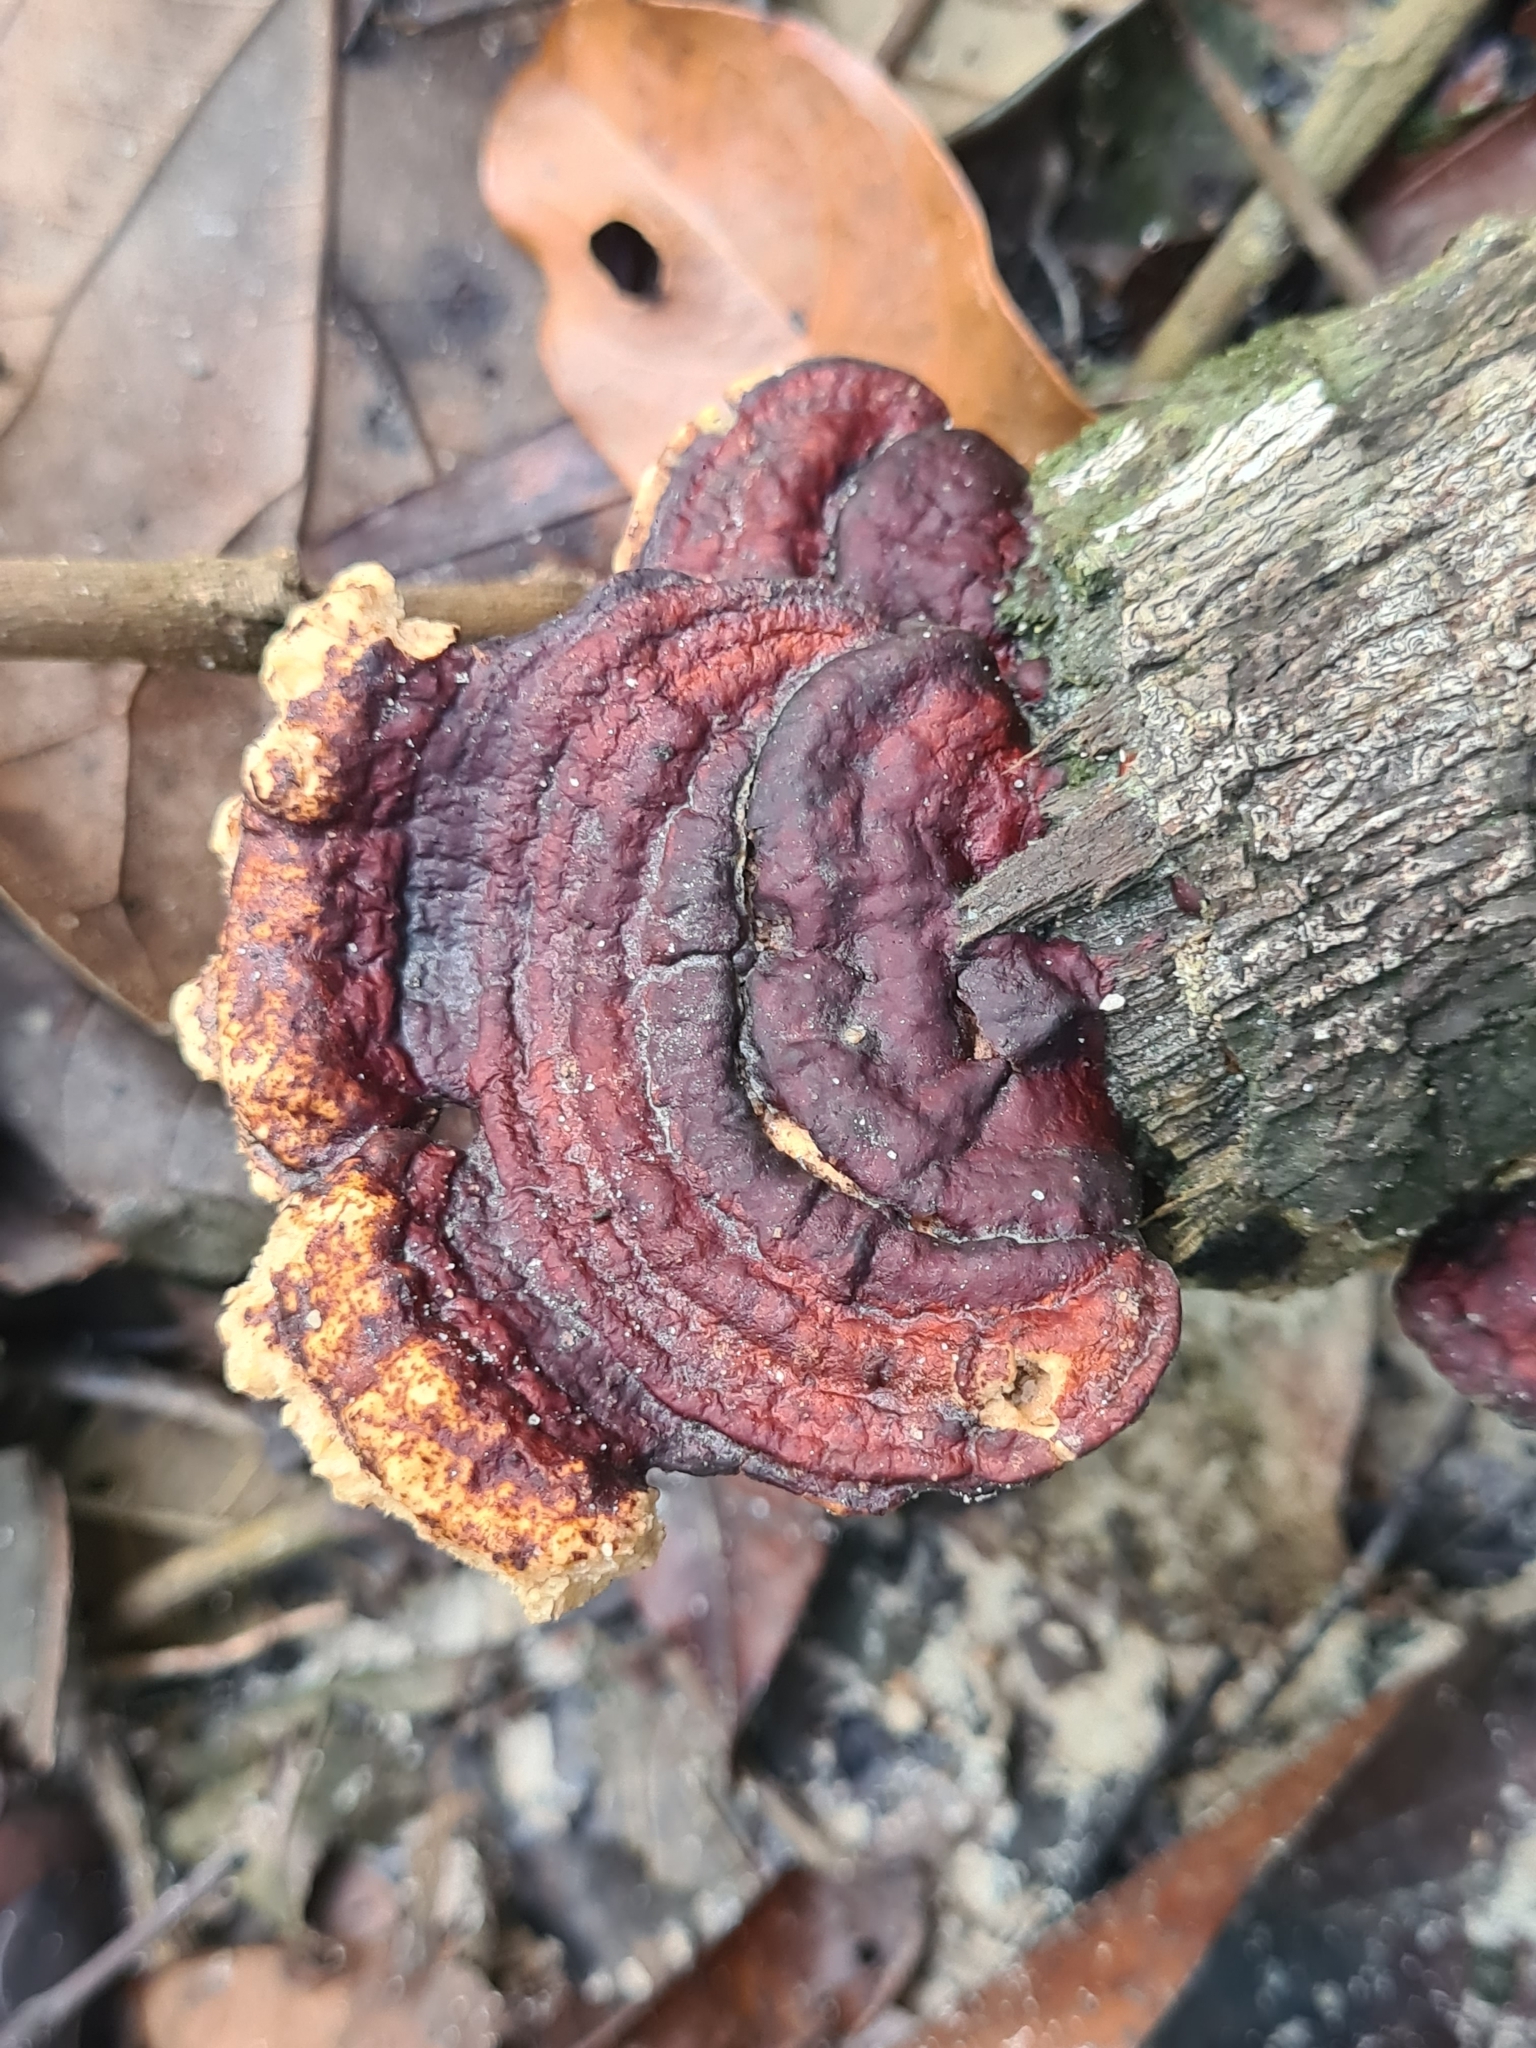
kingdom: Fungi
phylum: Basidiomycota
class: Agaricomycetes
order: Polyporales
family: Polyporaceae
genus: Earliella
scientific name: Earliella scabrosa
